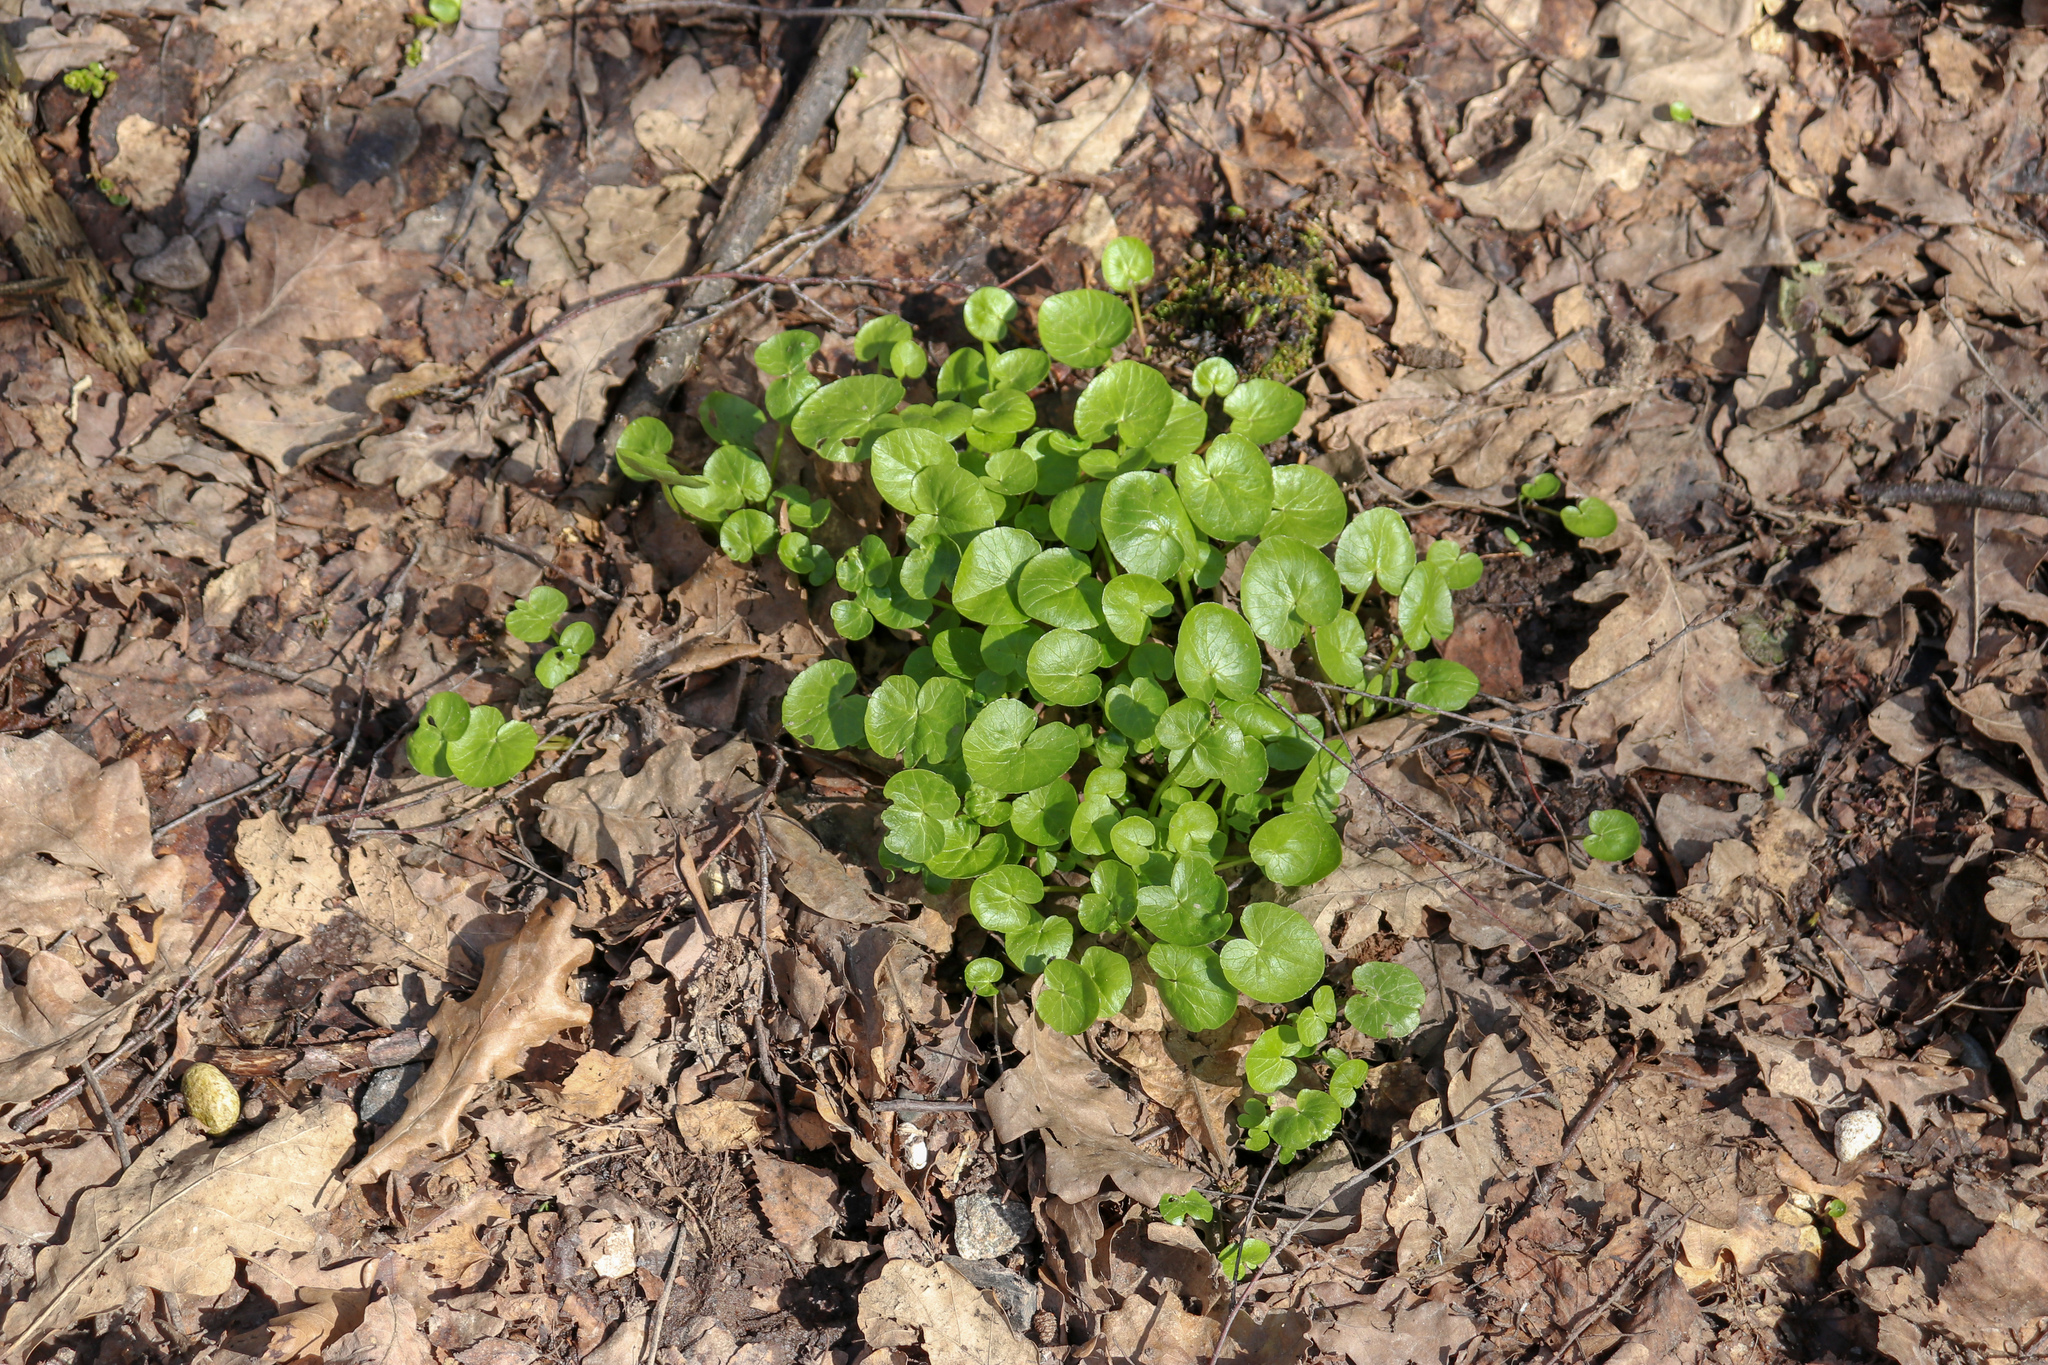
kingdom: Plantae
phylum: Tracheophyta
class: Magnoliopsida
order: Ranunculales
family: Ranunculaceae
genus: Ficaria
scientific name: Ficaria verna
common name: Lesser celandine
